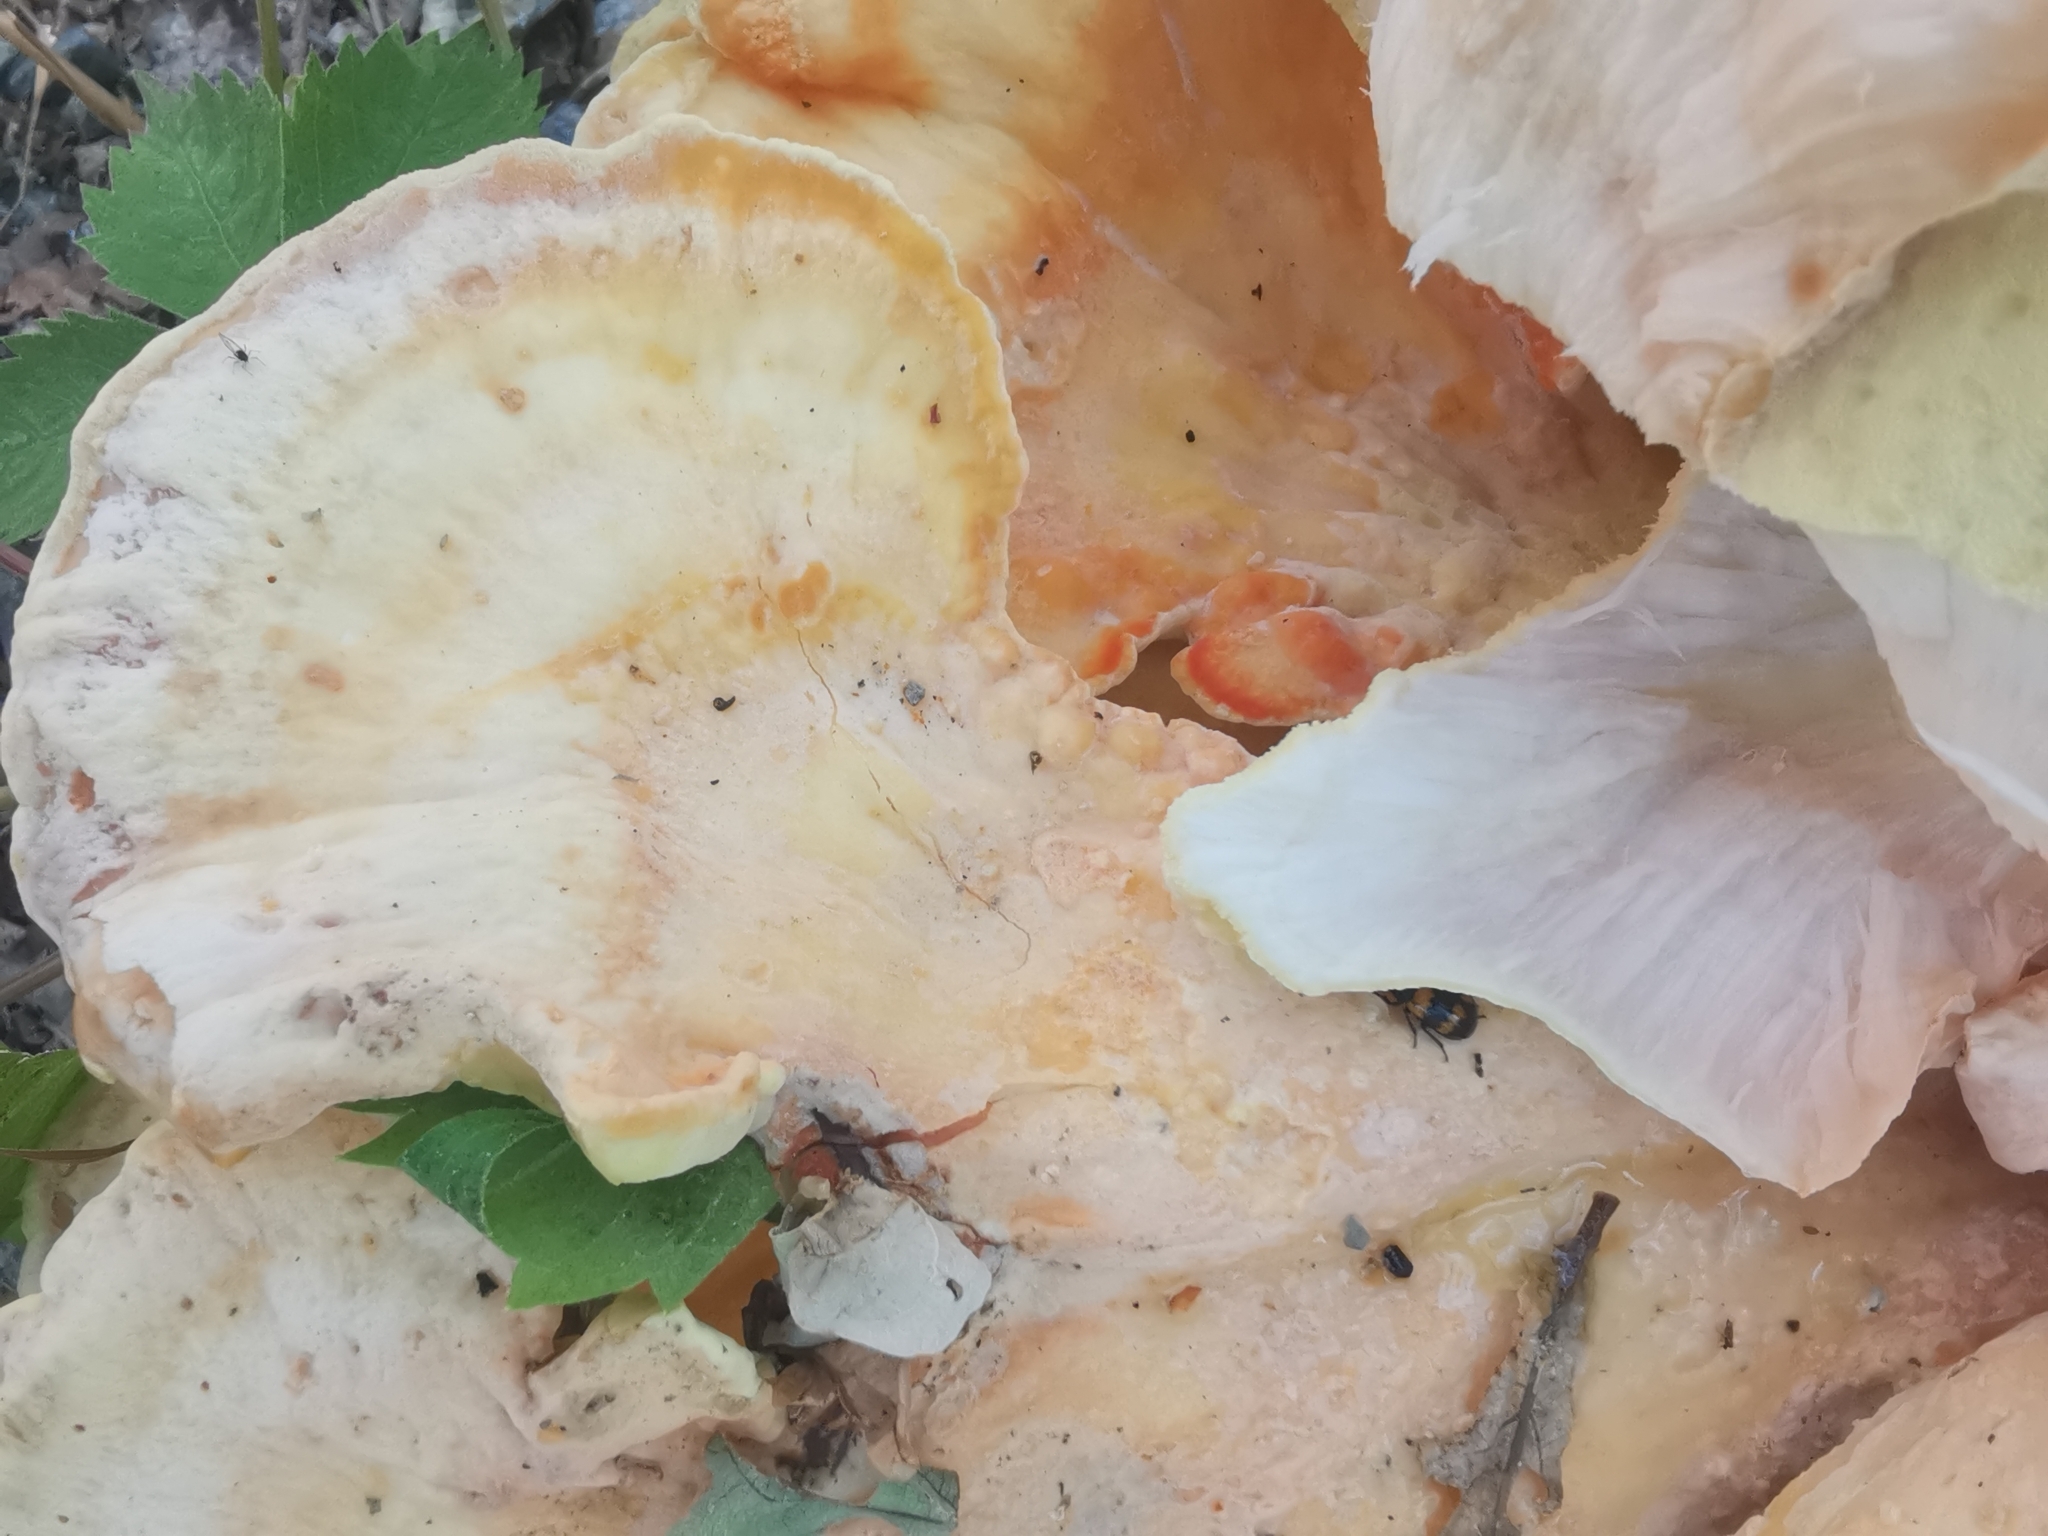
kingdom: Fungi
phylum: Basidiomycota
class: Agaricomycetes
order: Polyporales
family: Laetiporaceae
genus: Laetiporus
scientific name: Laetiporus sulphureus
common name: Chicken of the woods
